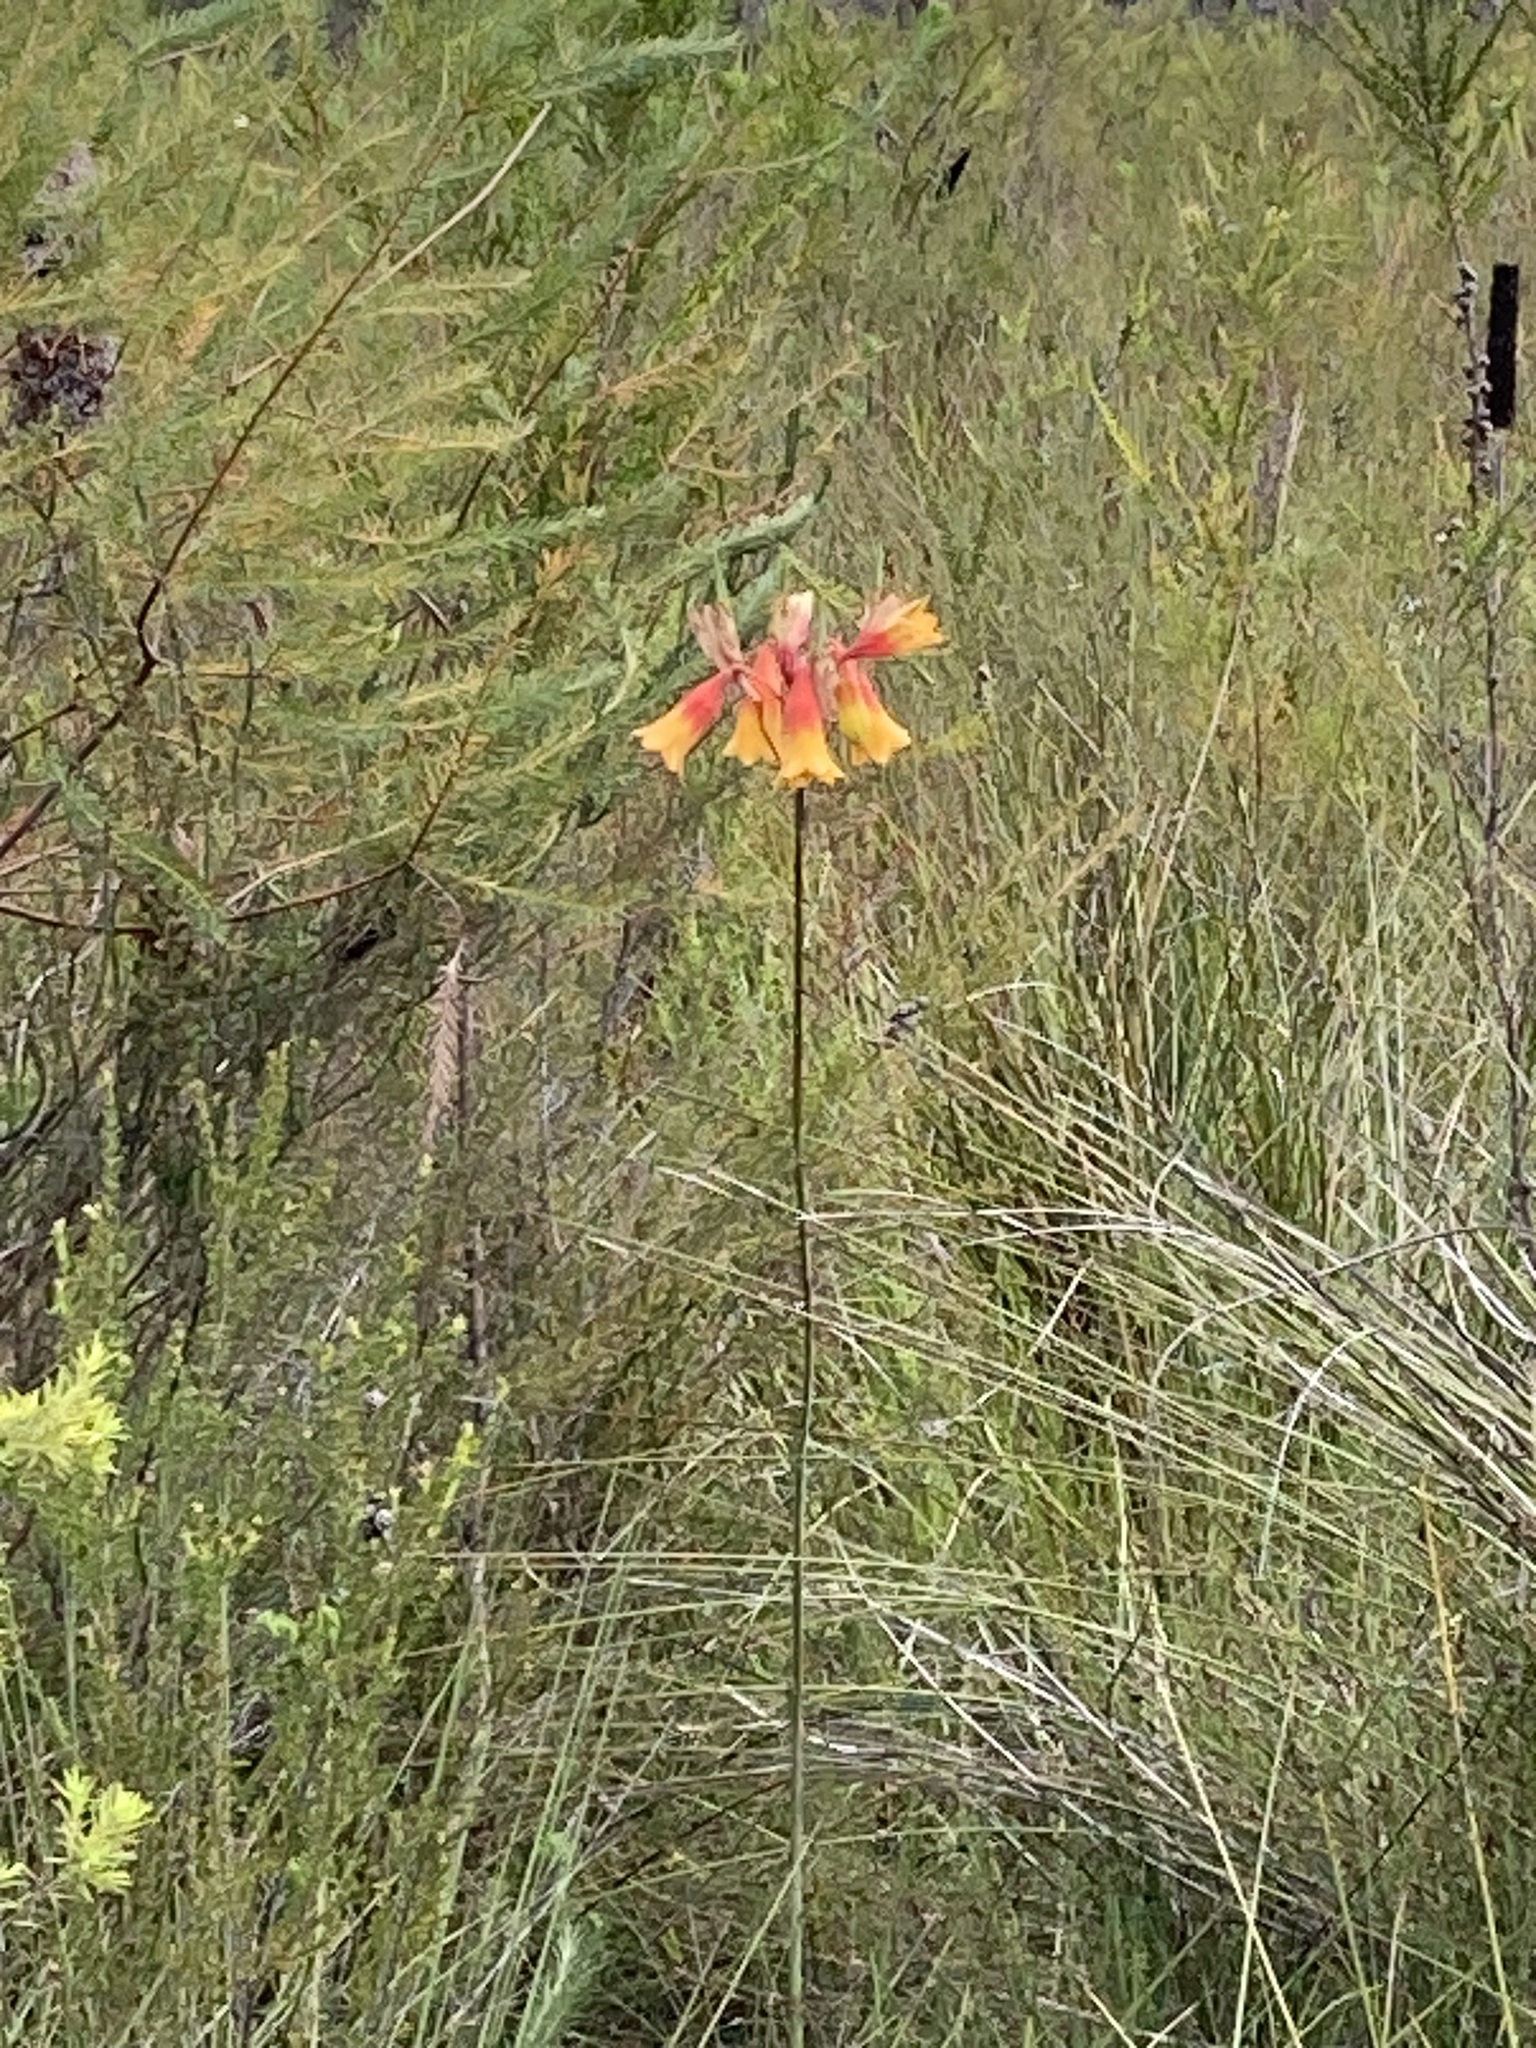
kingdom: Plantae
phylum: Tracheophyta
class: Liliopsida
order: Asparagales
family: Blandfordiaceae
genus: Blandfordia
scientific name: Blandfordia grandiflora
